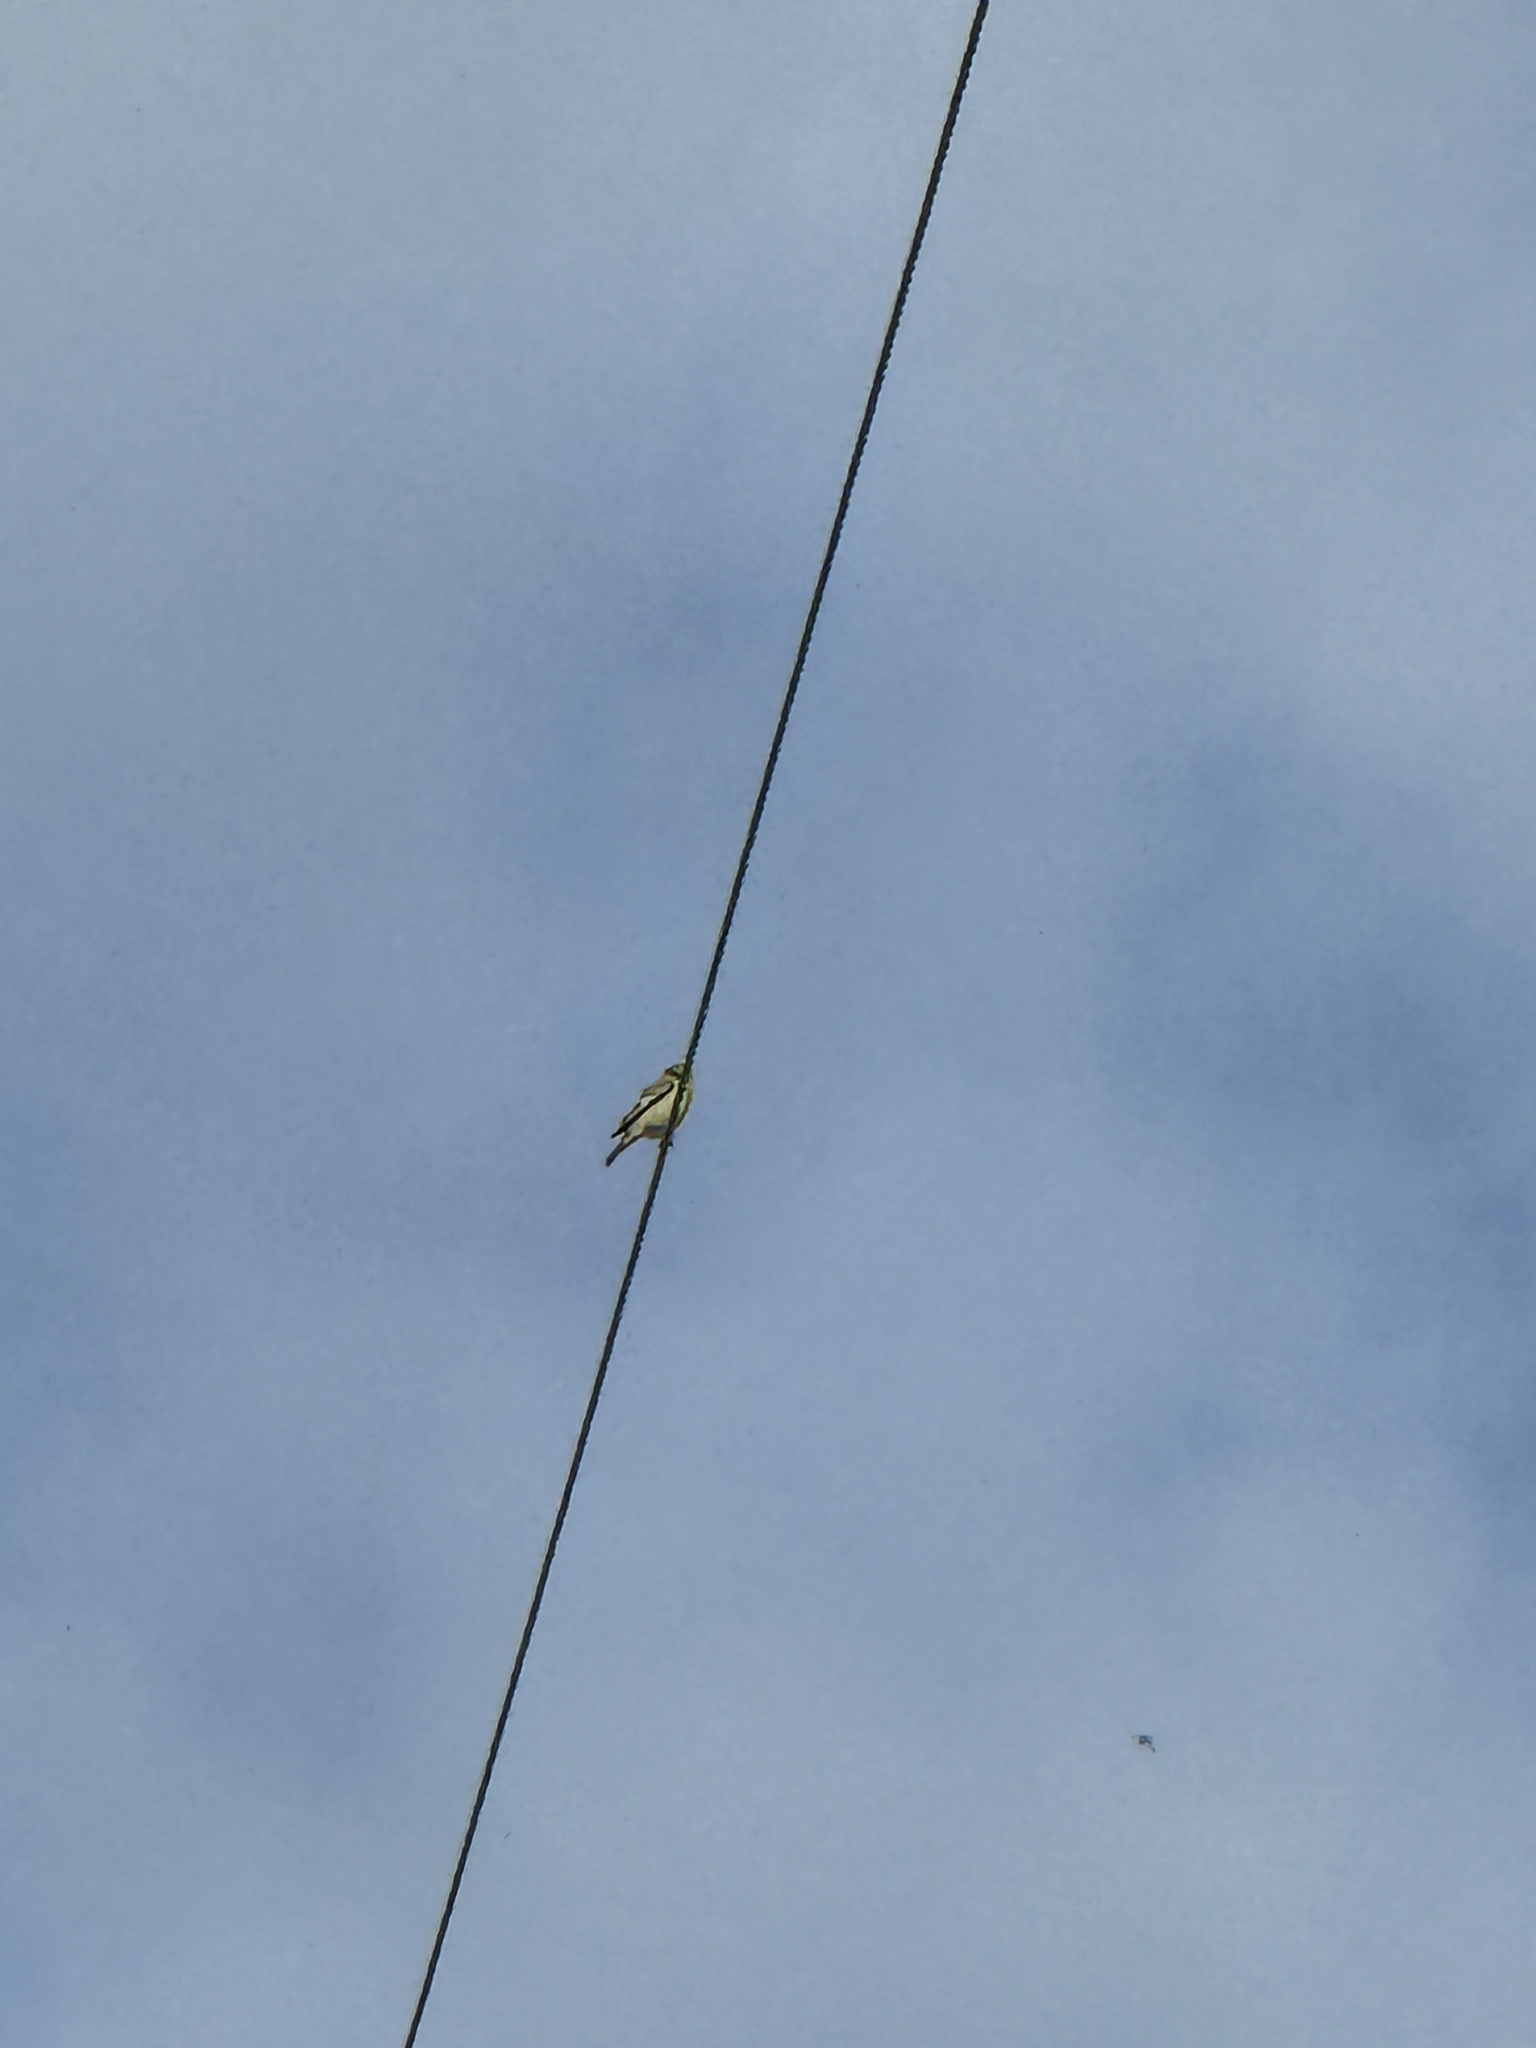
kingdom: Animalia
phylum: Chordata
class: Aves
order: Passeriformes
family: Fringillidae
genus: Spinus
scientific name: Spinus psaltria
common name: Lesser goldfinch
